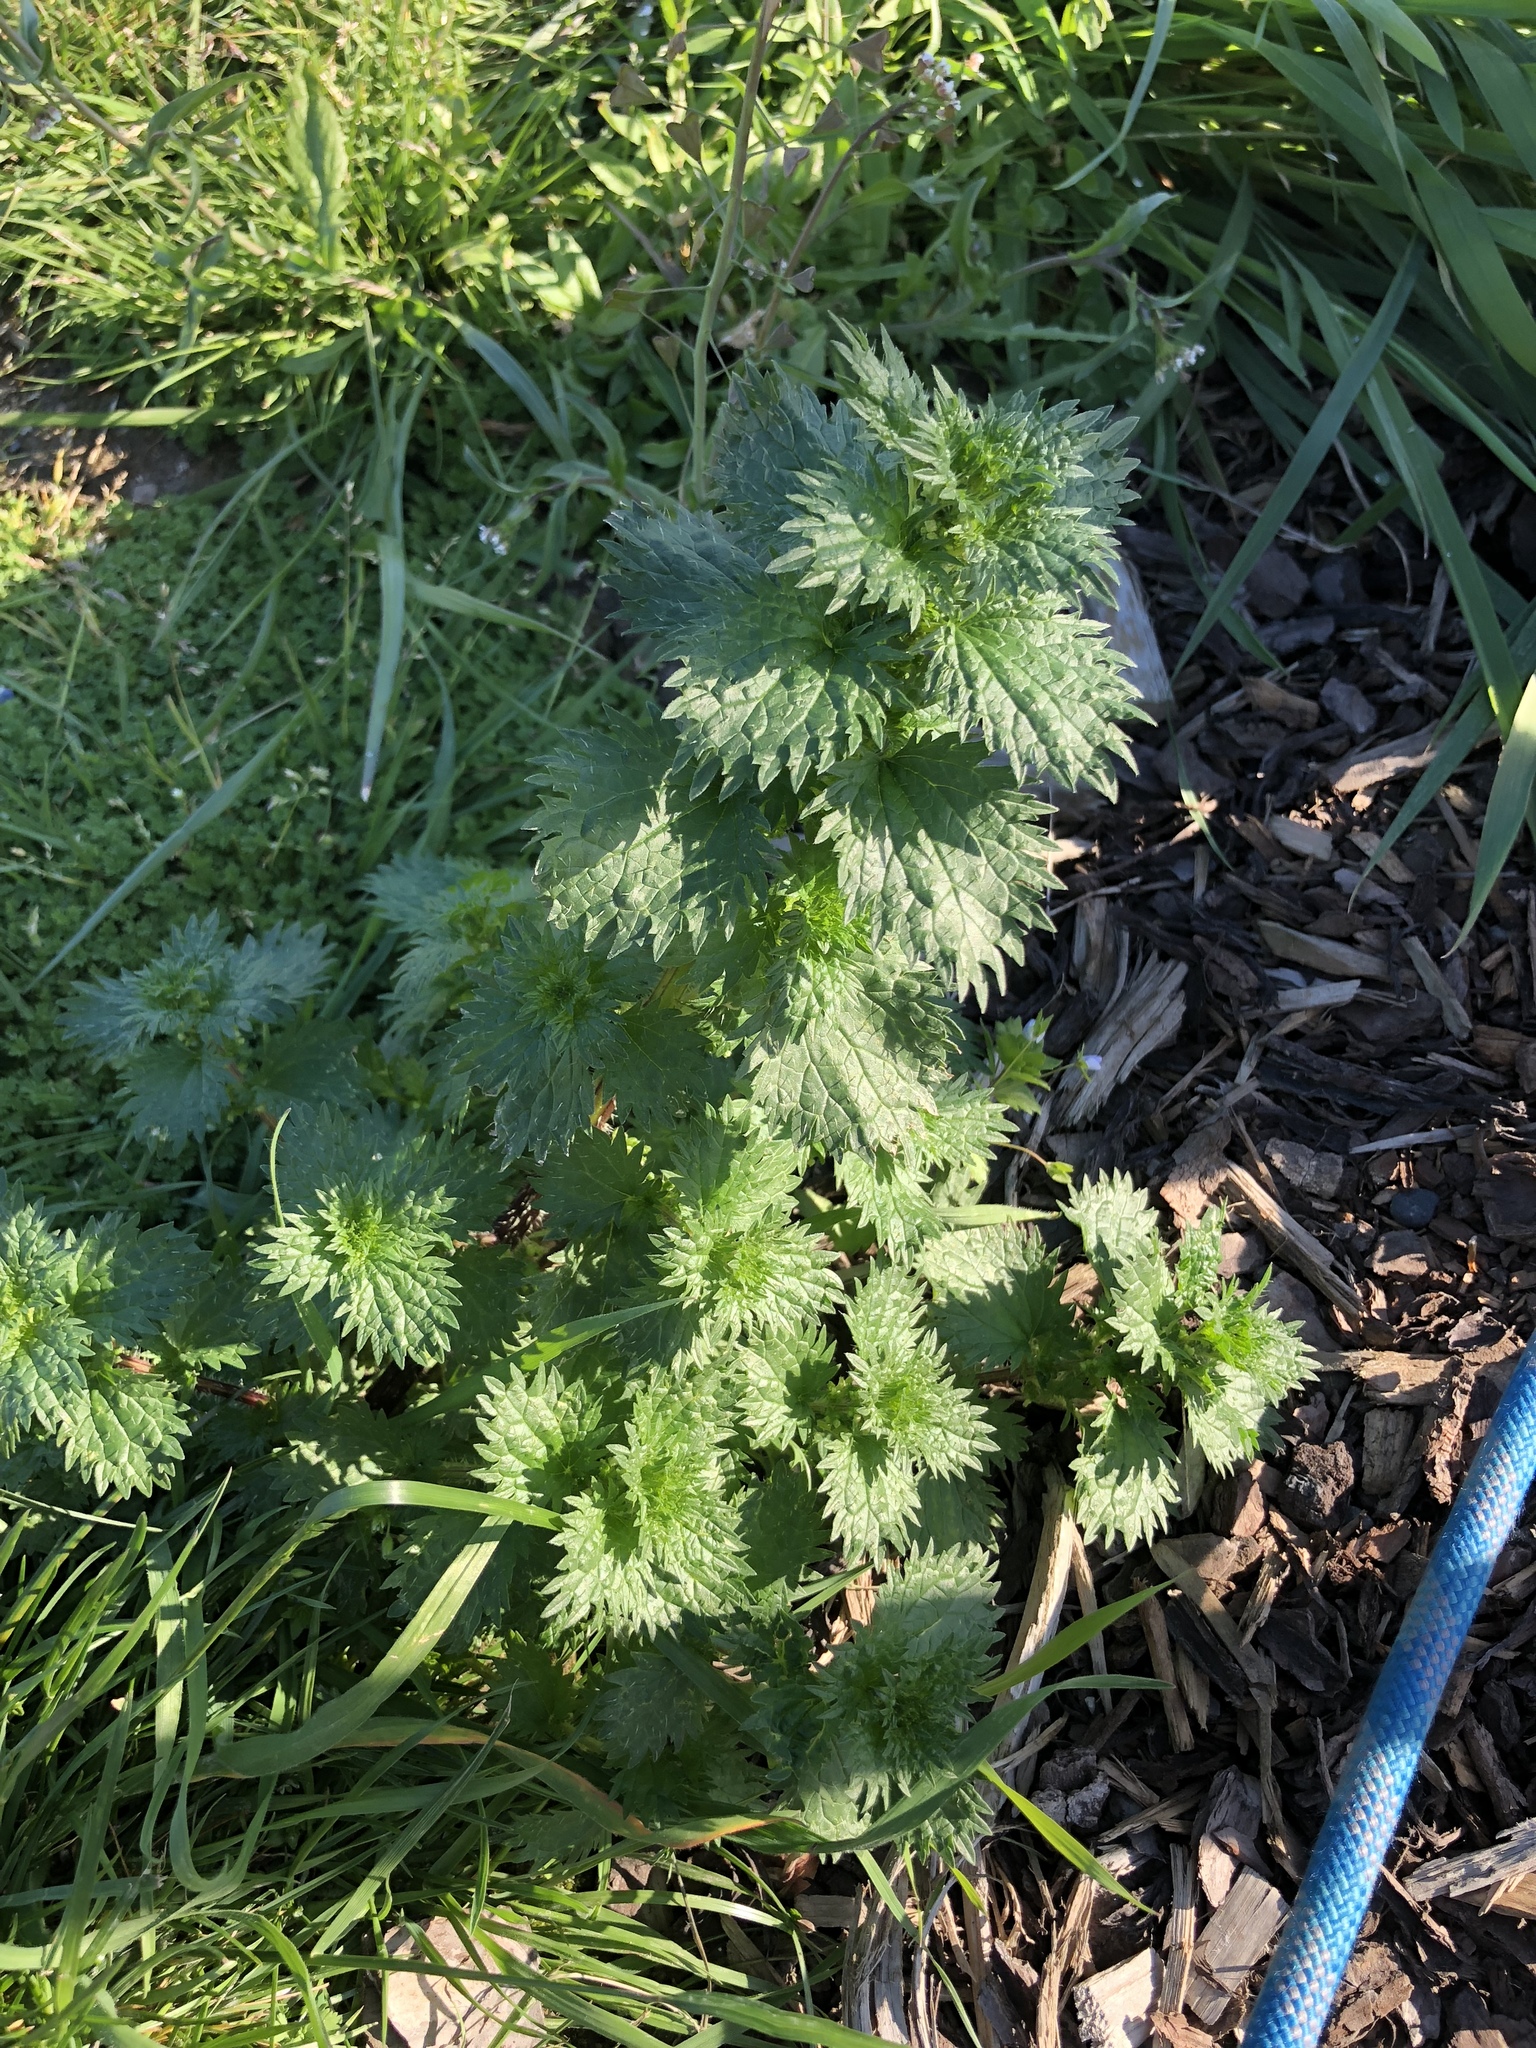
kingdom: Plantae
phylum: Tracheophyta
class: Magnoliopsida
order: Rosales
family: Urticaceae
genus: Urtica
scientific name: Urtica urens
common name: Dwarf nettle
